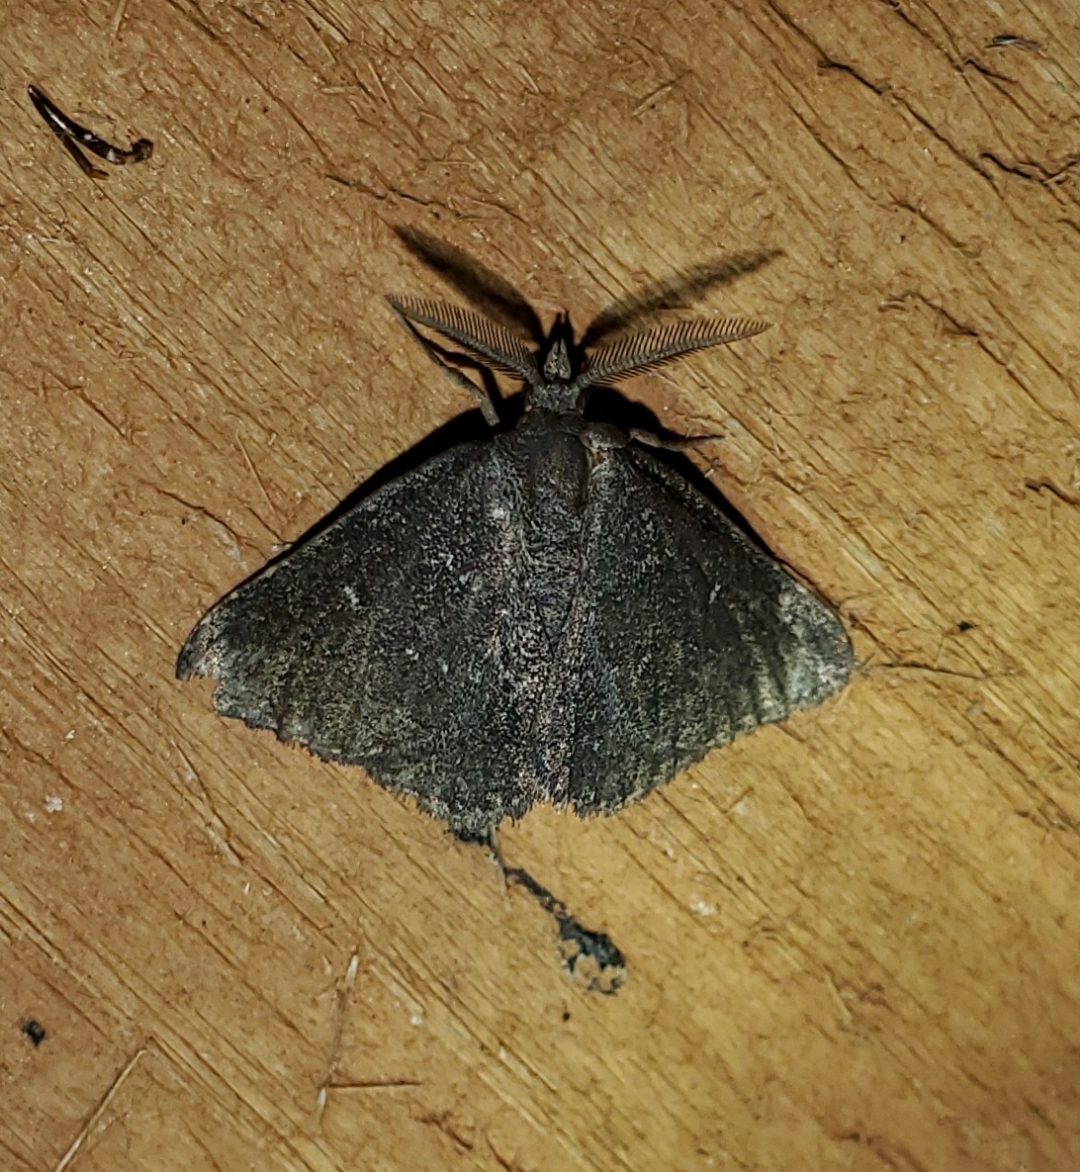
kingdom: Animalia
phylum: Arthropoda
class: Insecta
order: Lepidoptera
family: Erebidae
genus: Prosoparia
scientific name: Prosoparia floridana
